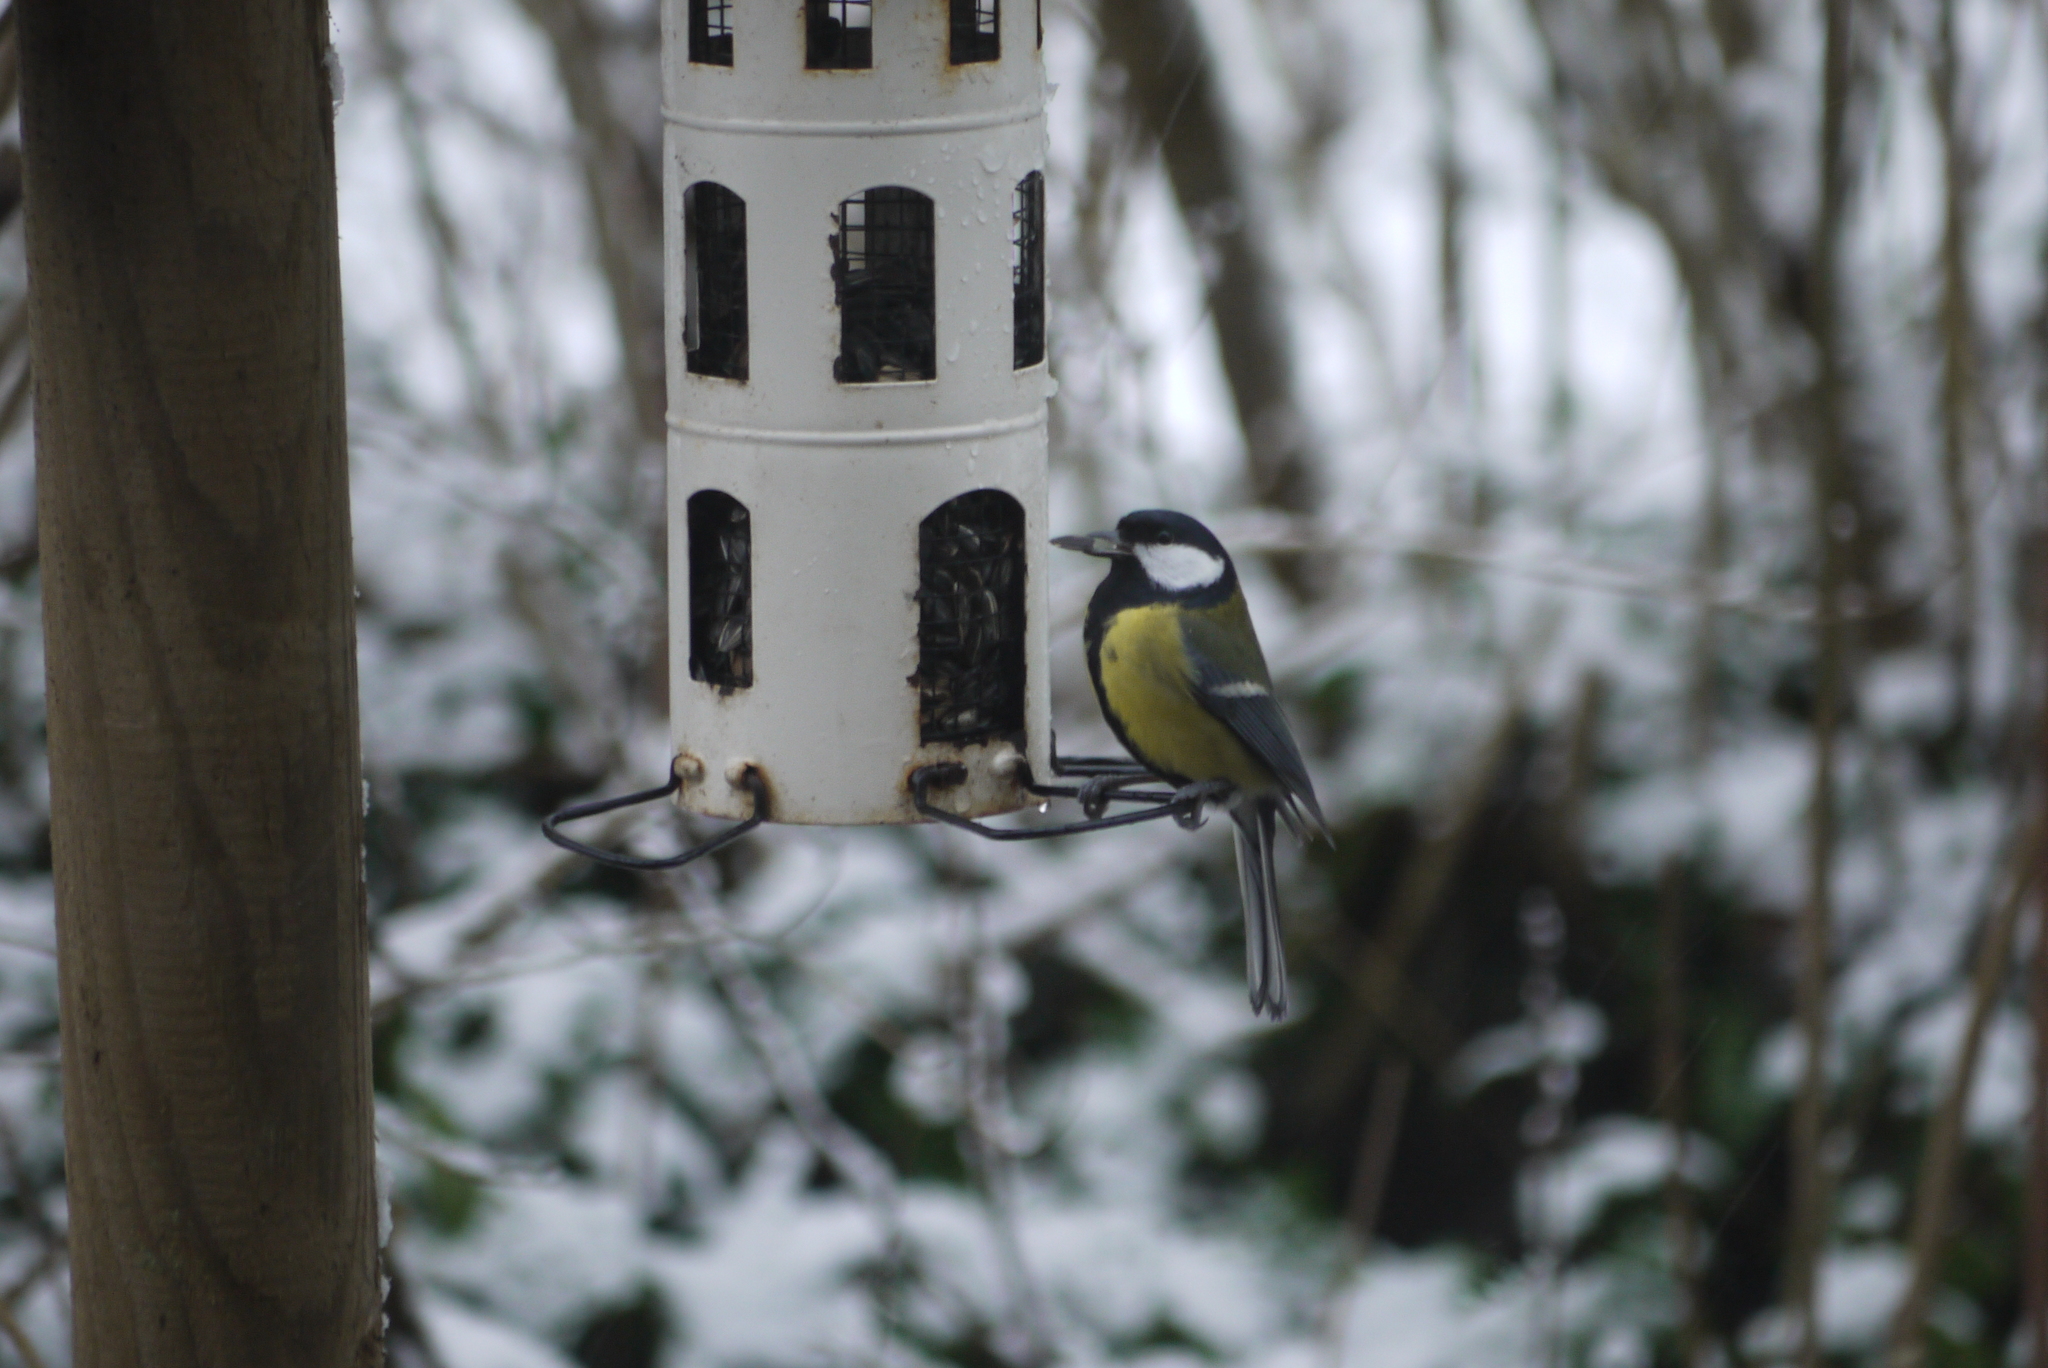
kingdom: Animalia
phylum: Chordata
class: Aves
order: Passeriformes
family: Paridae
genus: Parus
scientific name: Parus major
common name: Great tit
